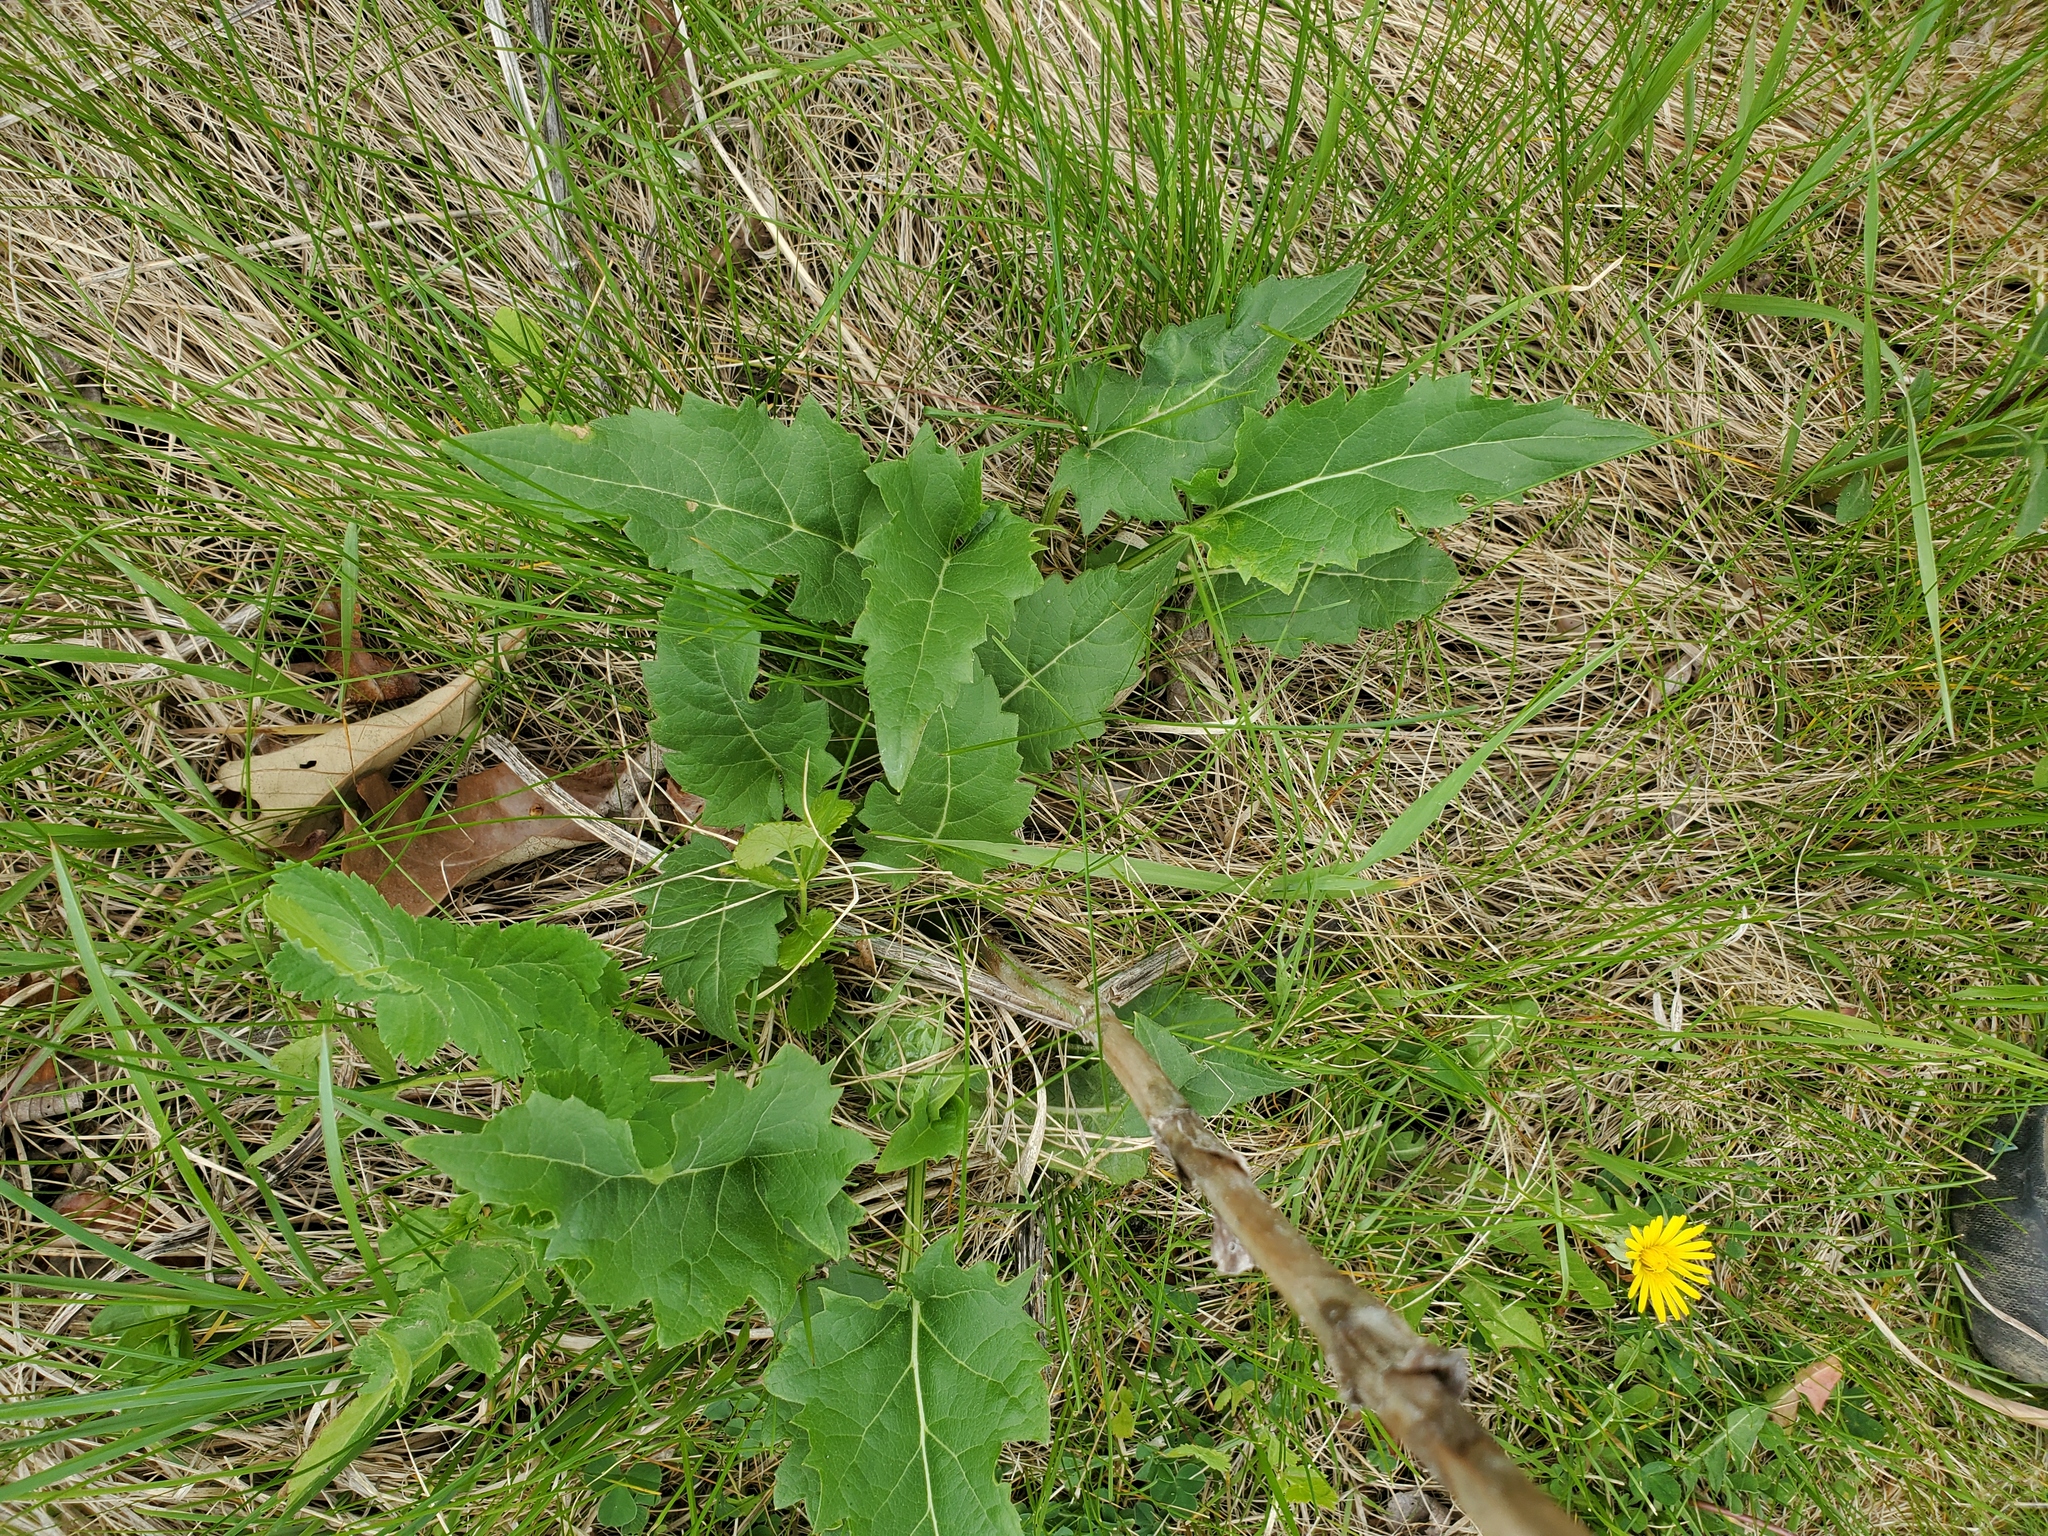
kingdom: Plantae
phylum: Tracheophyta
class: Magnoliopsida
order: Asterales
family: Asteraceae
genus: Silphium
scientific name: Silphium perfoliatum
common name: Cup-plant
